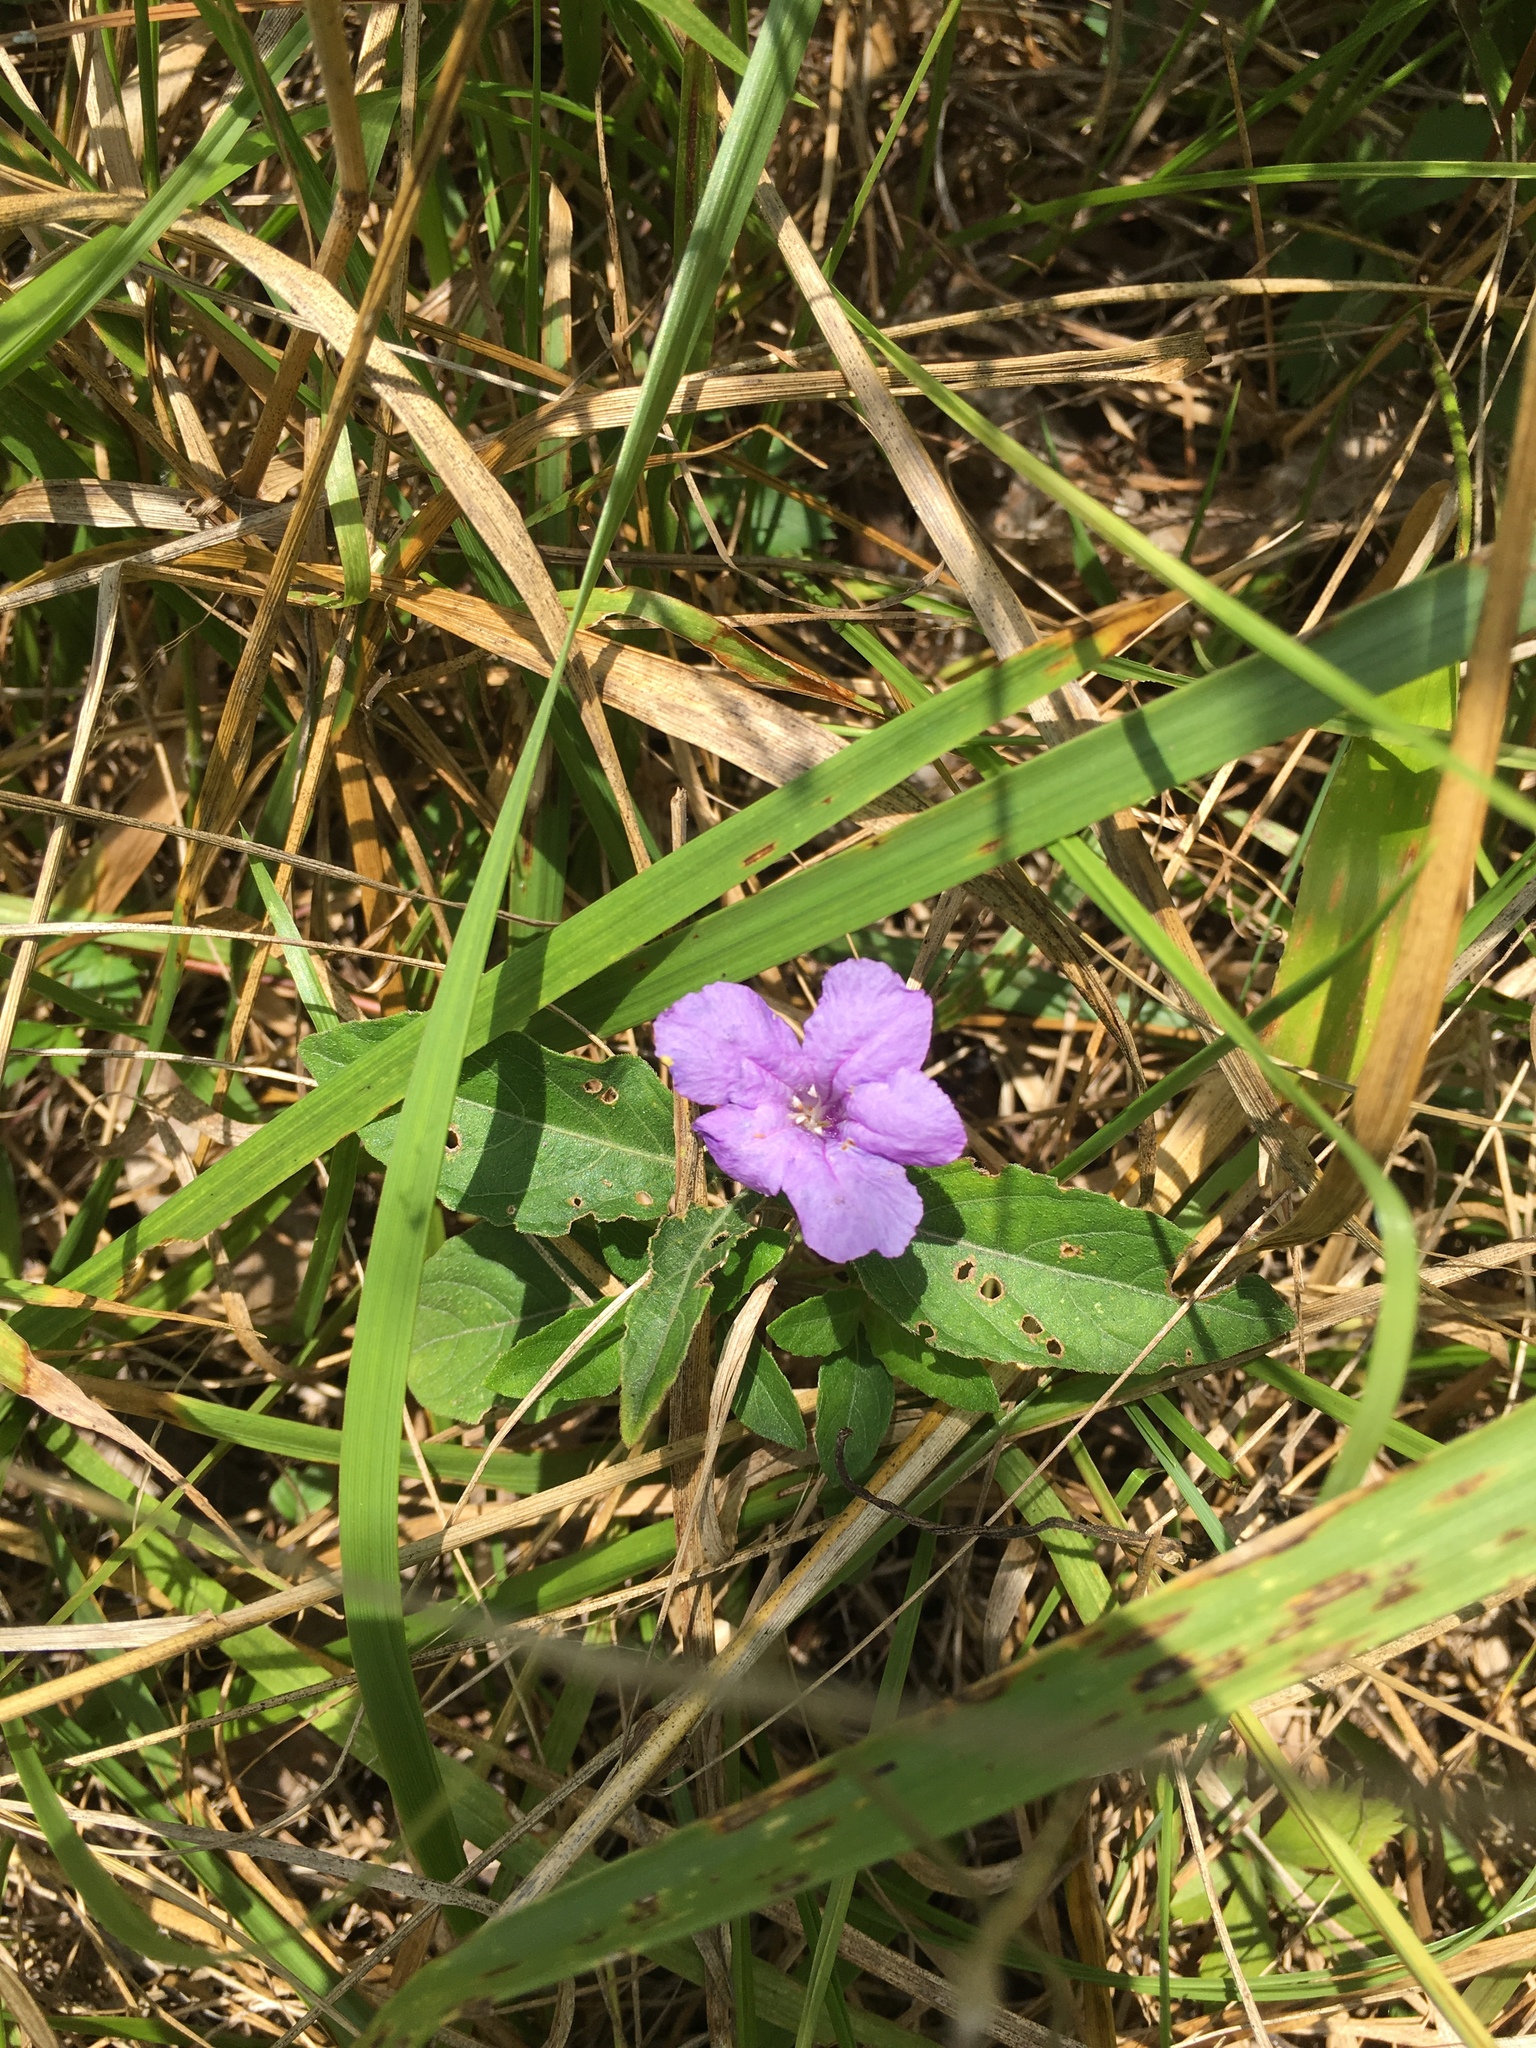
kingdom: Plantae
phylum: Tracheophyta
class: Magnoliopsida
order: Lamiales
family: Acanthaceae
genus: Ruellia
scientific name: Ruellia caroliniensis
